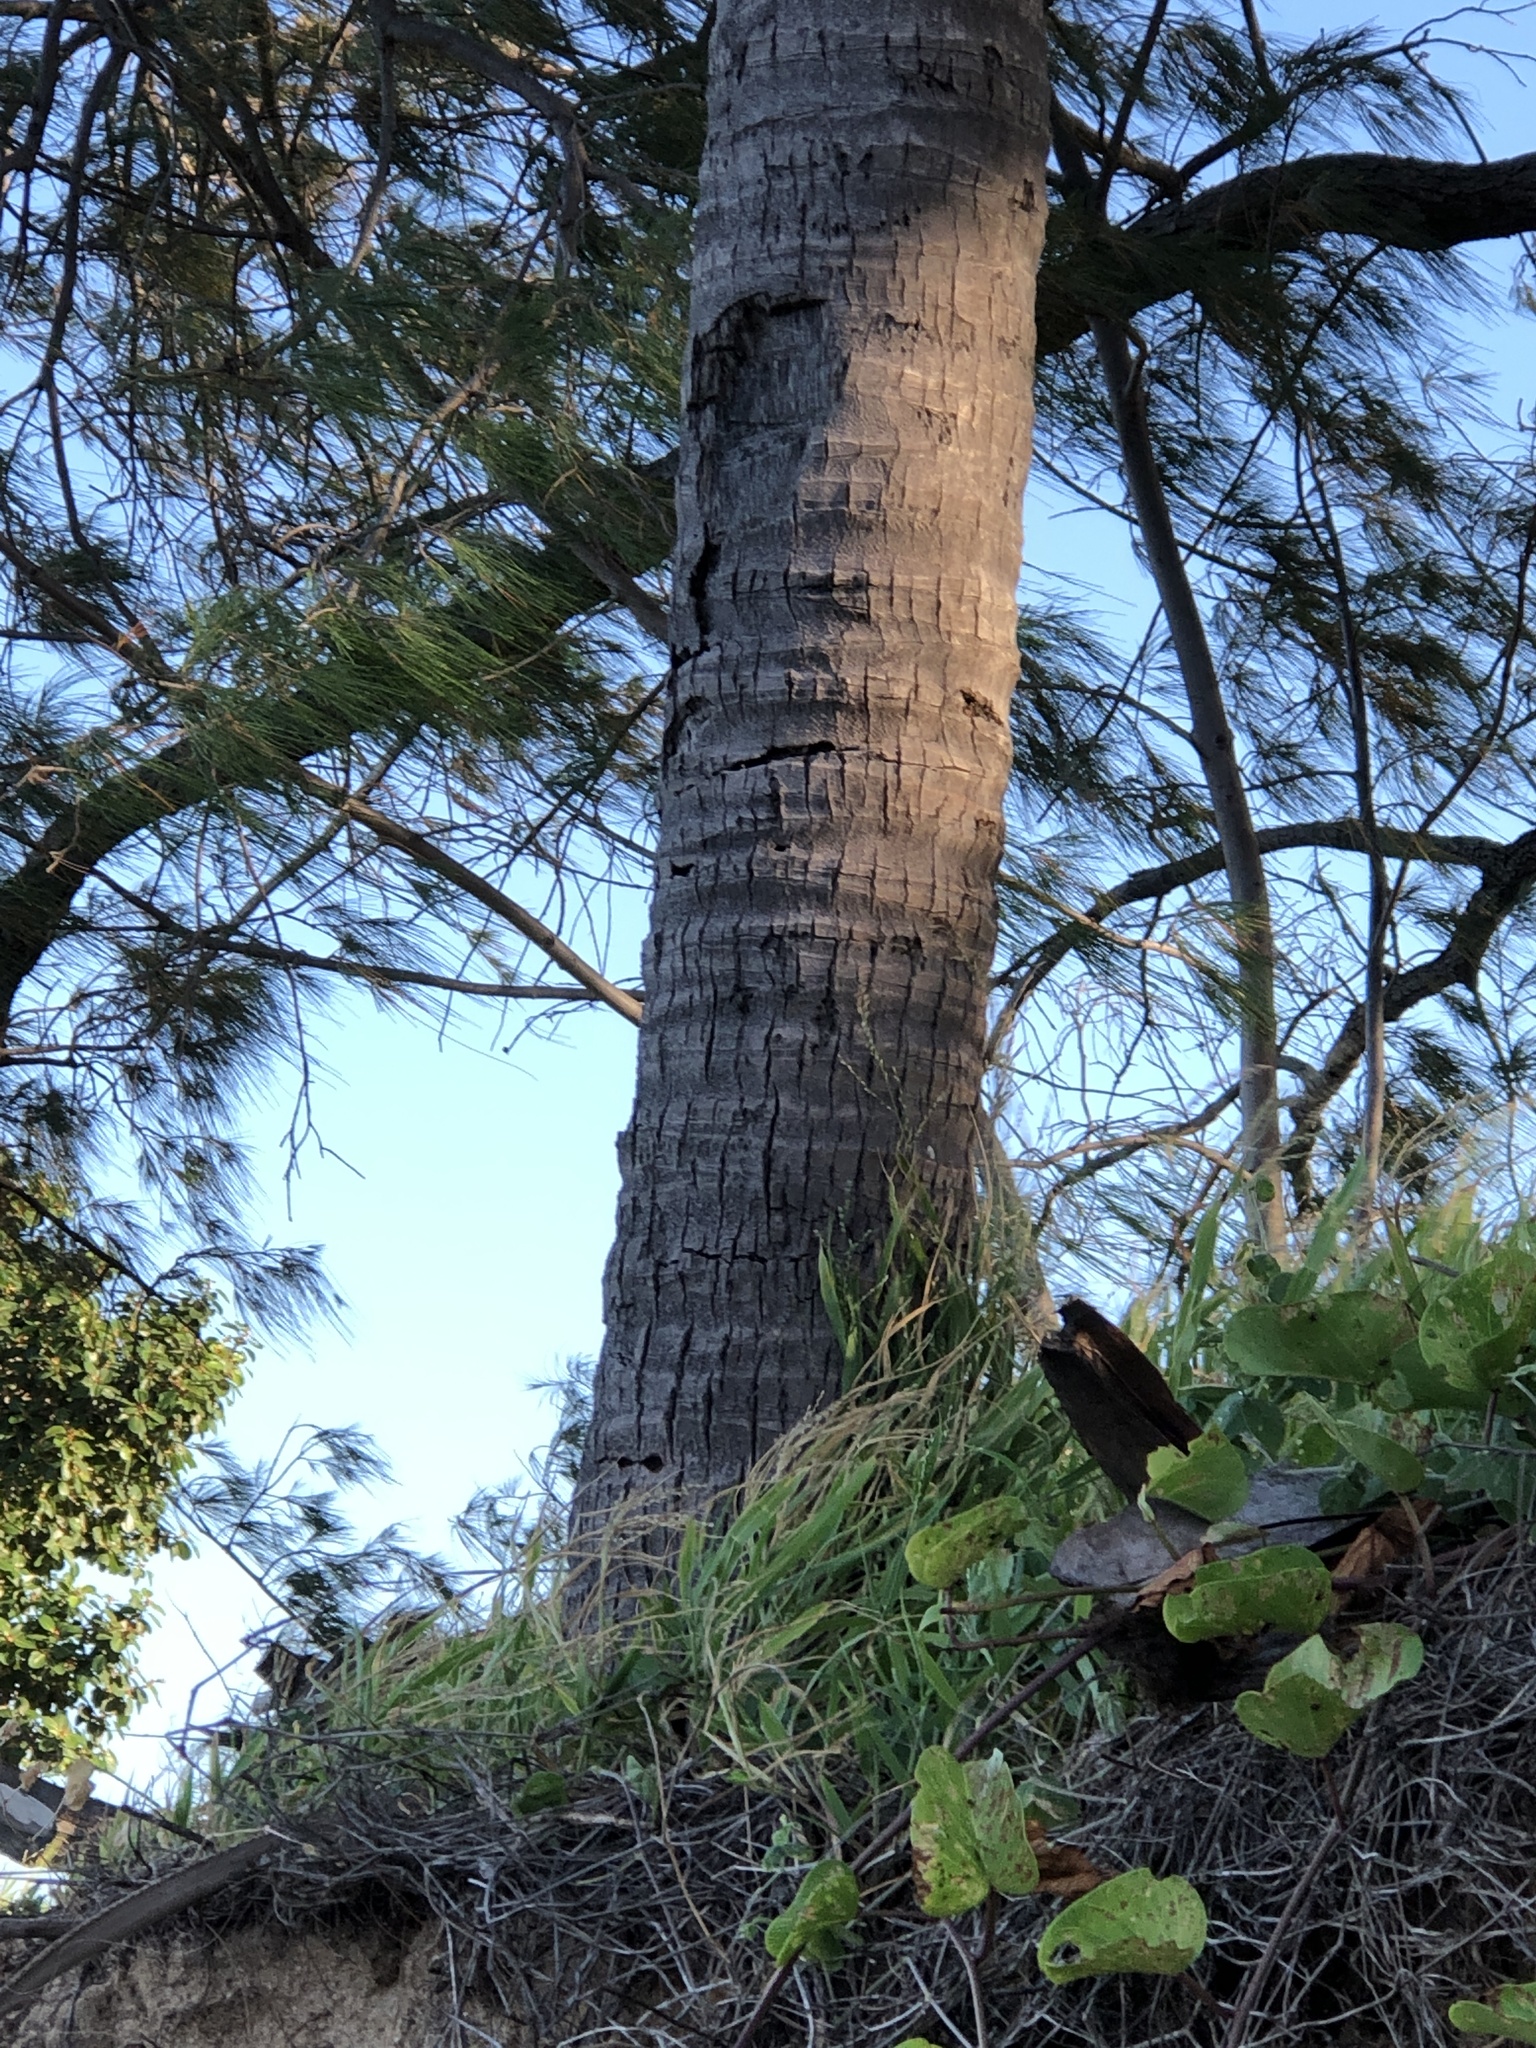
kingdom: Plantae
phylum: Tracheophyta
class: Liliopsida
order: Arecales
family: Arecaceae
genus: Cocos
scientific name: Cocos nucifera
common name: Coconut palm
